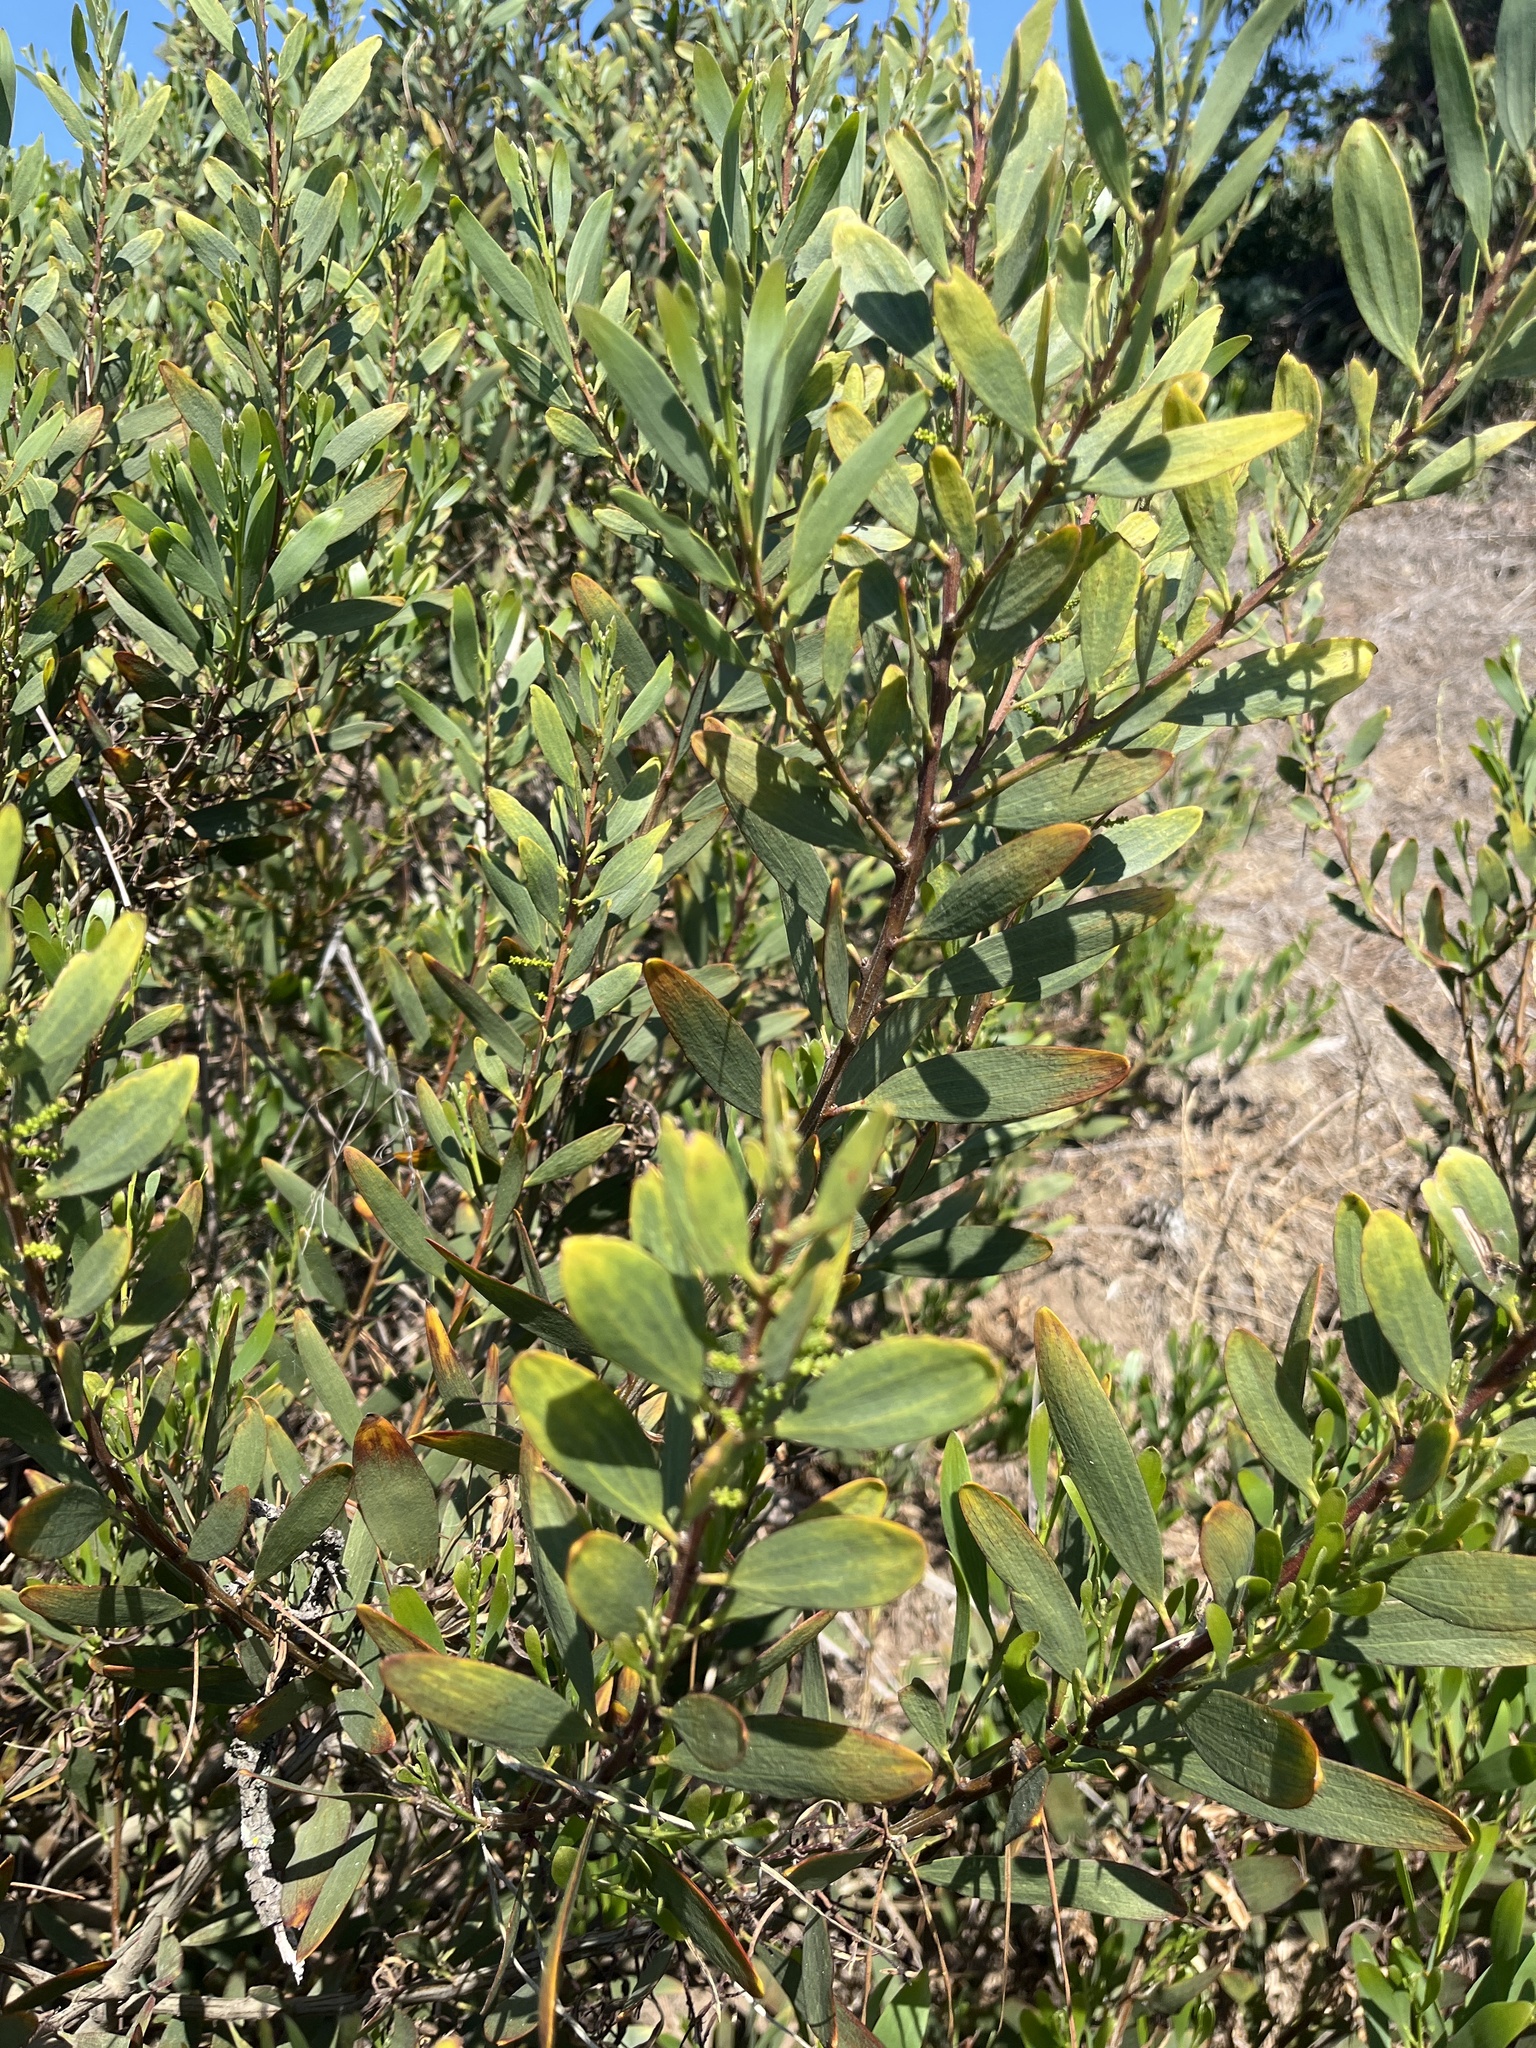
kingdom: Plantae
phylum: Tracheophyta
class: Magnoliopsida
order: Fabales
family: Fabaceae
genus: Acacia
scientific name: Acacia longifolia
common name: Sydney golden wattle
